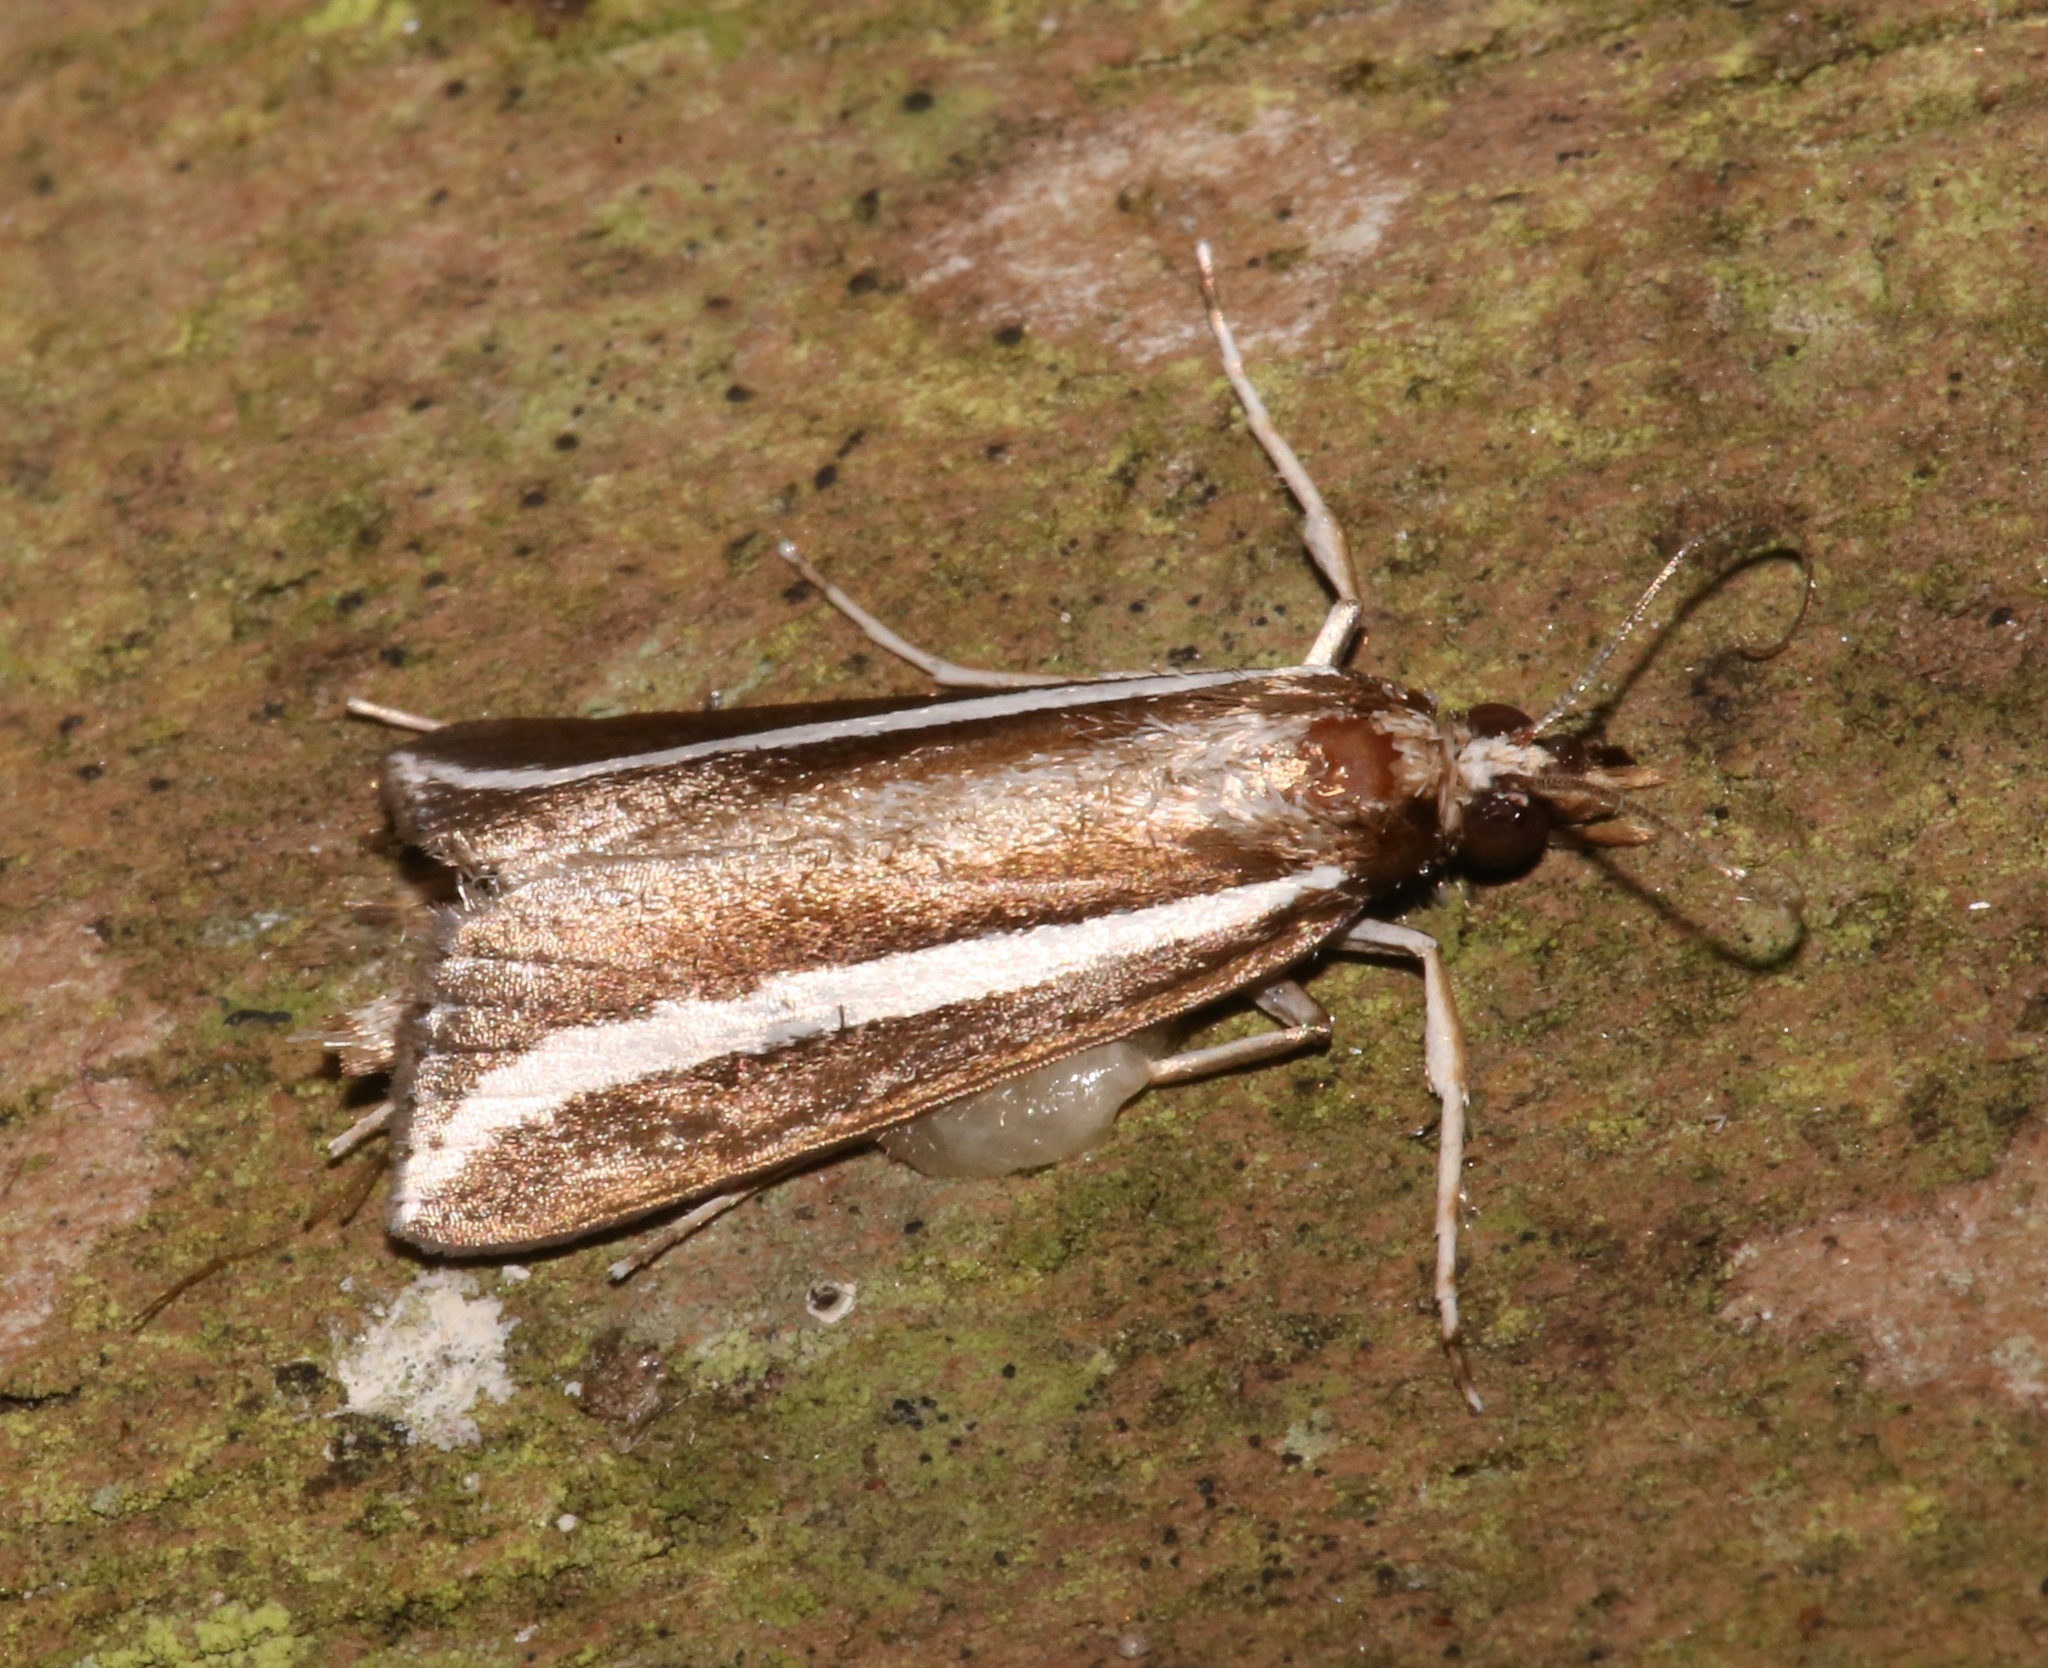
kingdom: Animalia
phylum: Arthropoda
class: Insecta
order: Lepidoptera
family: Crambidae
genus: Carectocultus
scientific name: Carectocultus perstrialis
